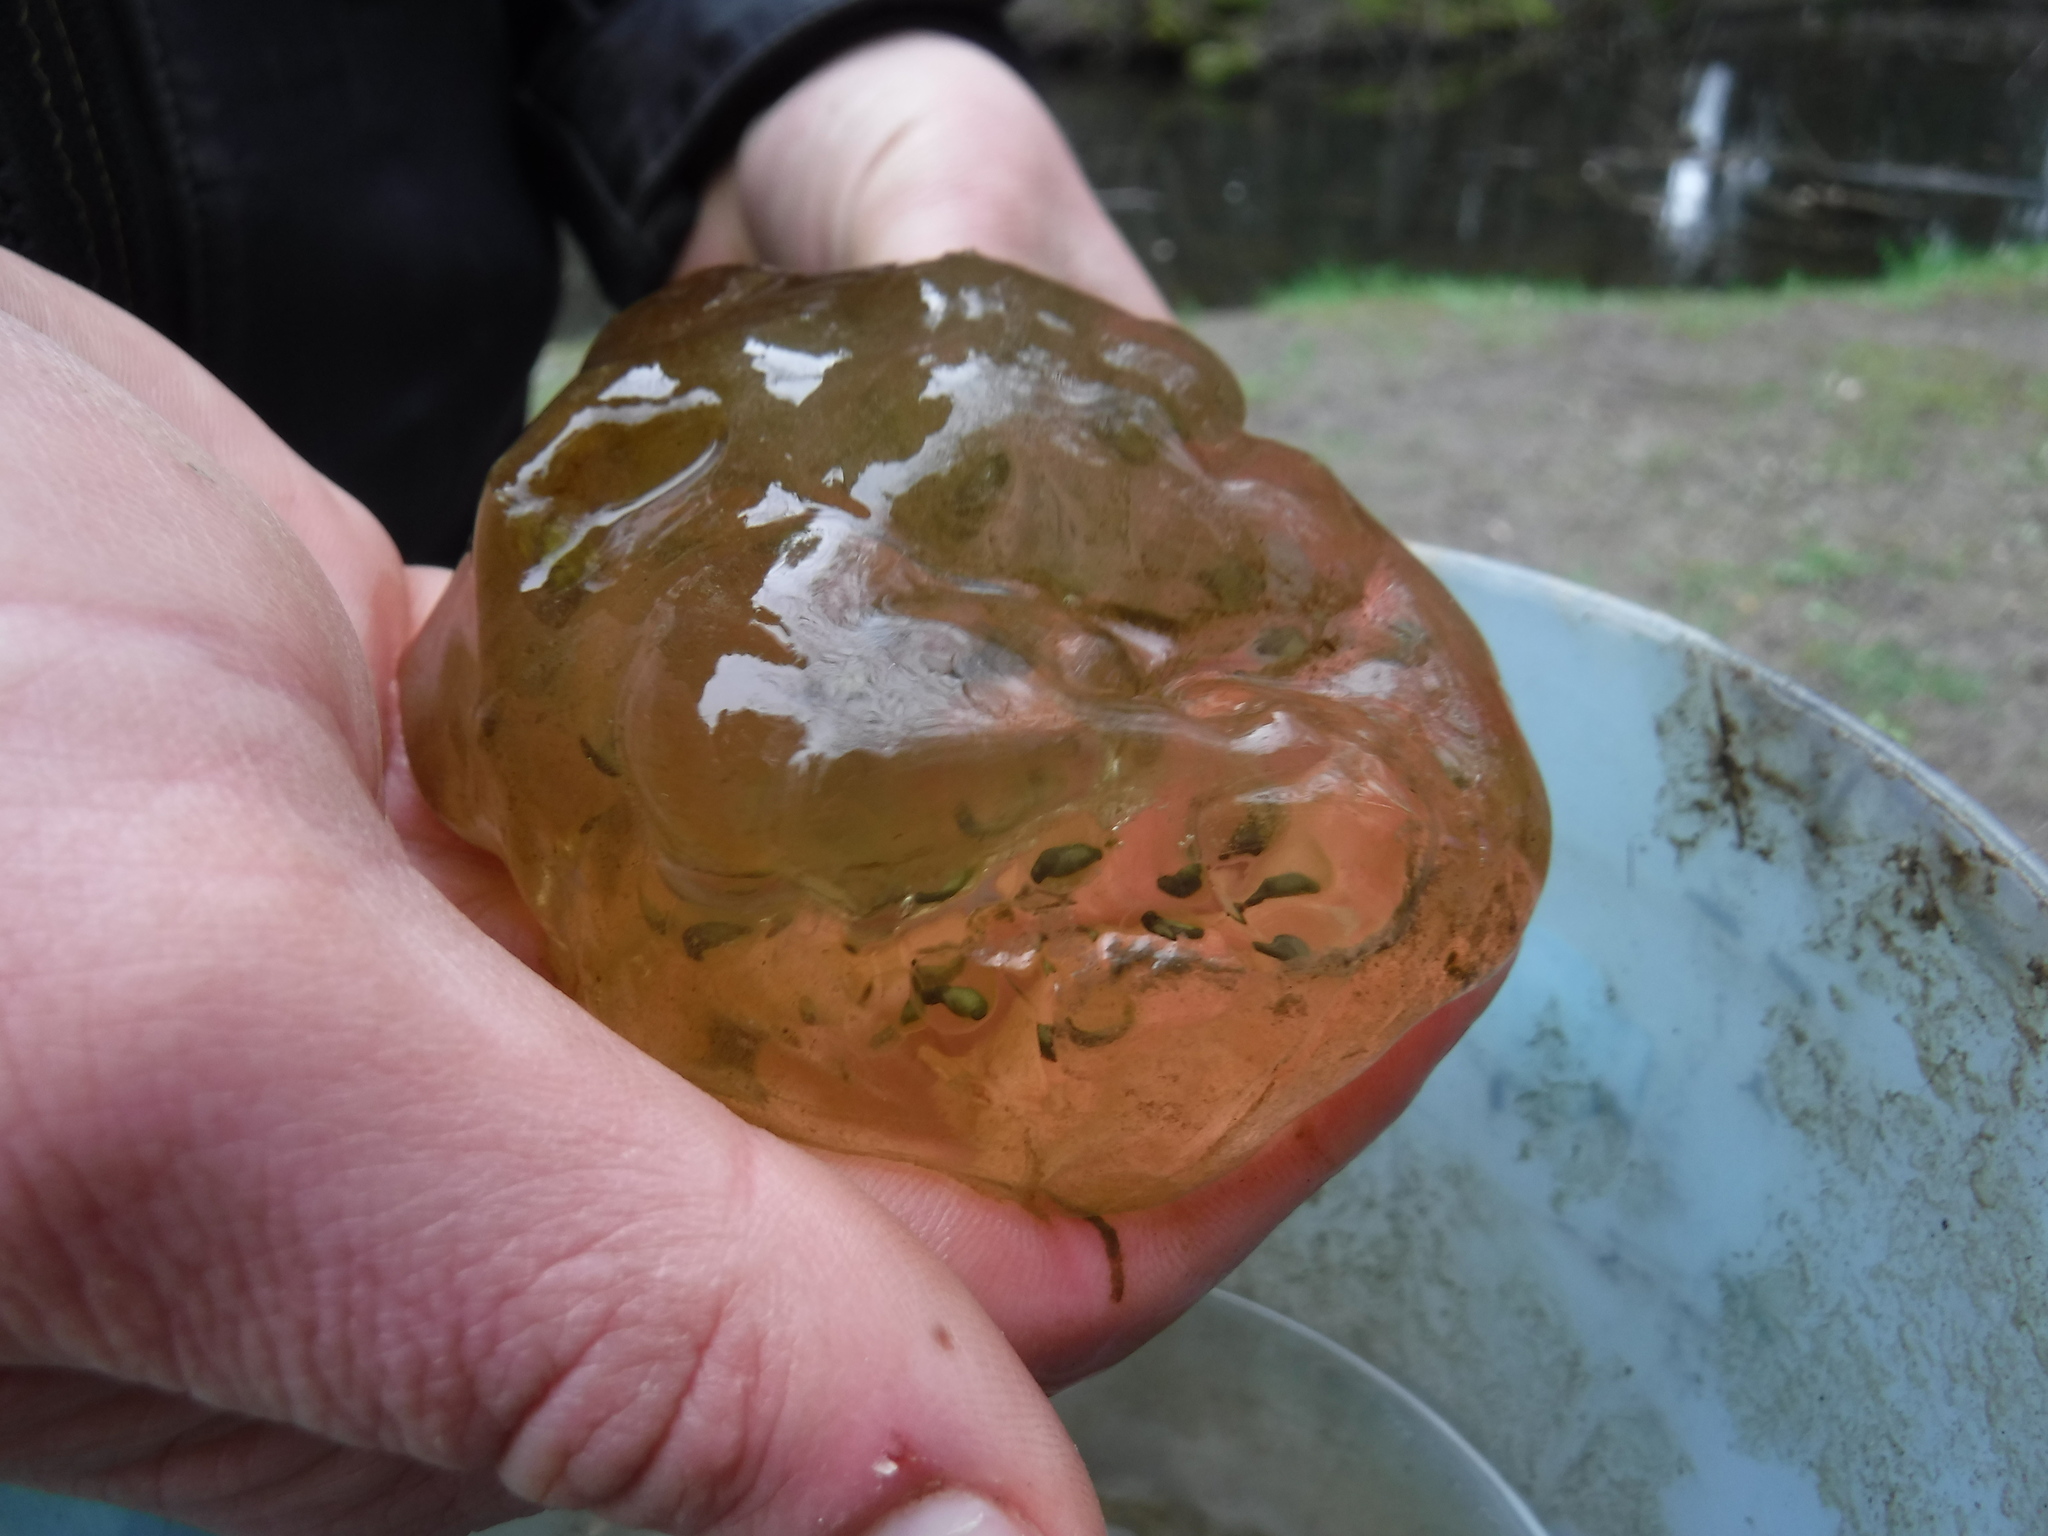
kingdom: Animalia
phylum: Chordata
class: Amphibia
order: Caudata
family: Ambystomatidae
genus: Ambystoma
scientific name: Ambystoma gracile
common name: Northwestern salamander
